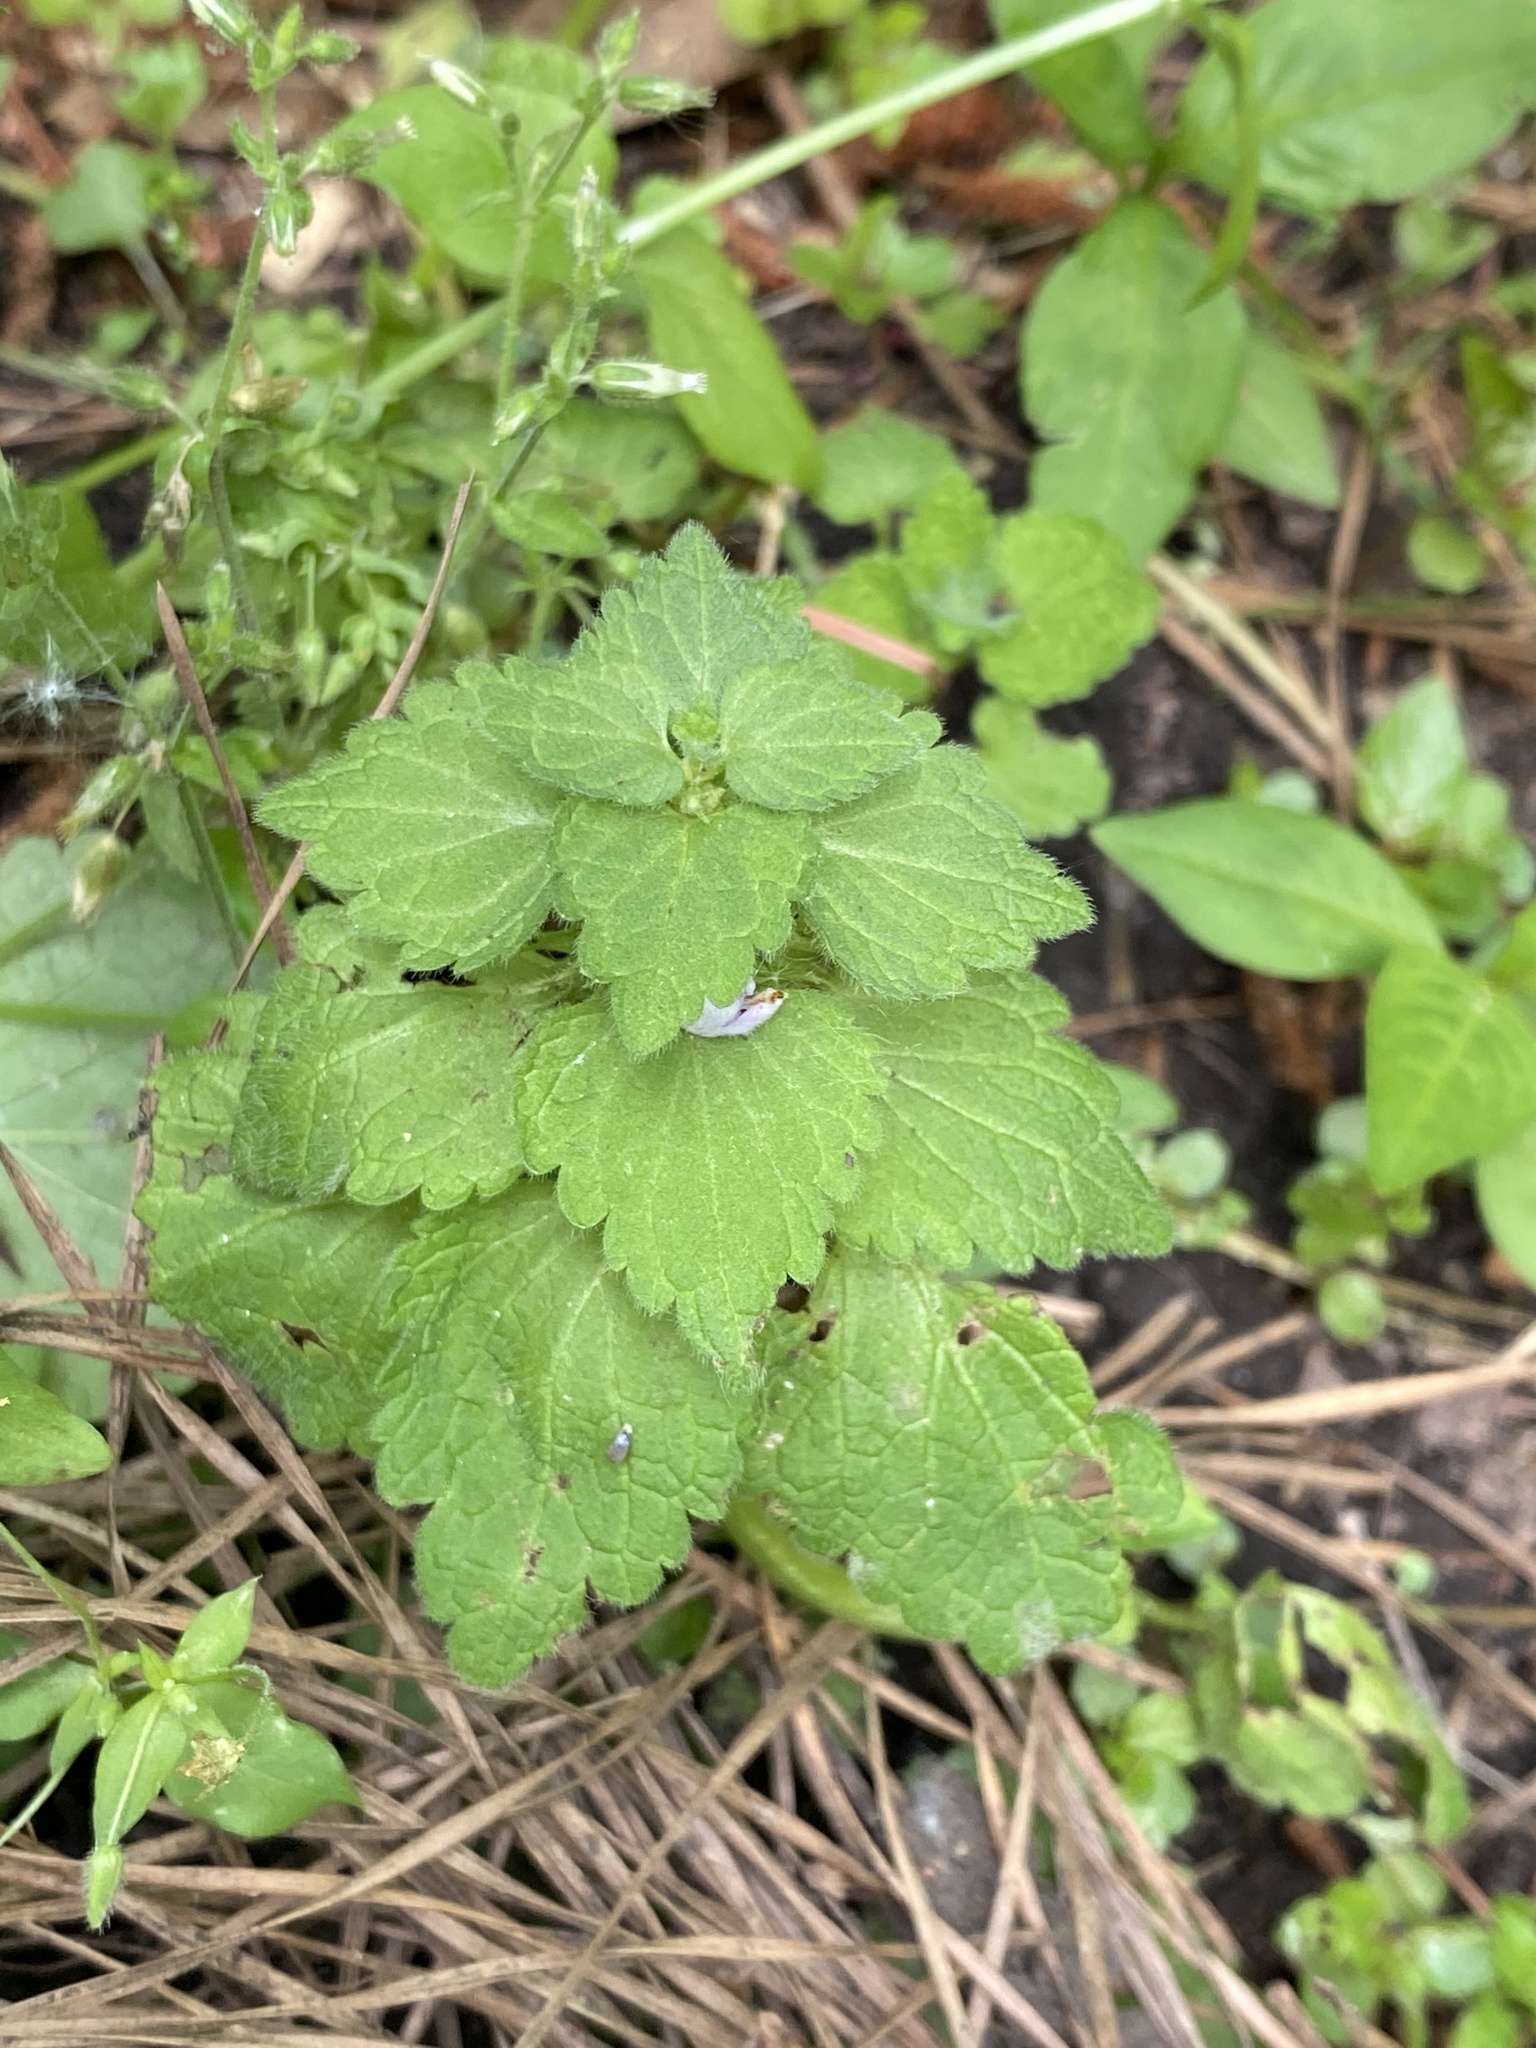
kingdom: Plantae
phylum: Tracheophyta
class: Magnoliopsida
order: Lamiales
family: Lamiaceae
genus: Lamium
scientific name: Lamium purpureum
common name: Red dead-nettle
